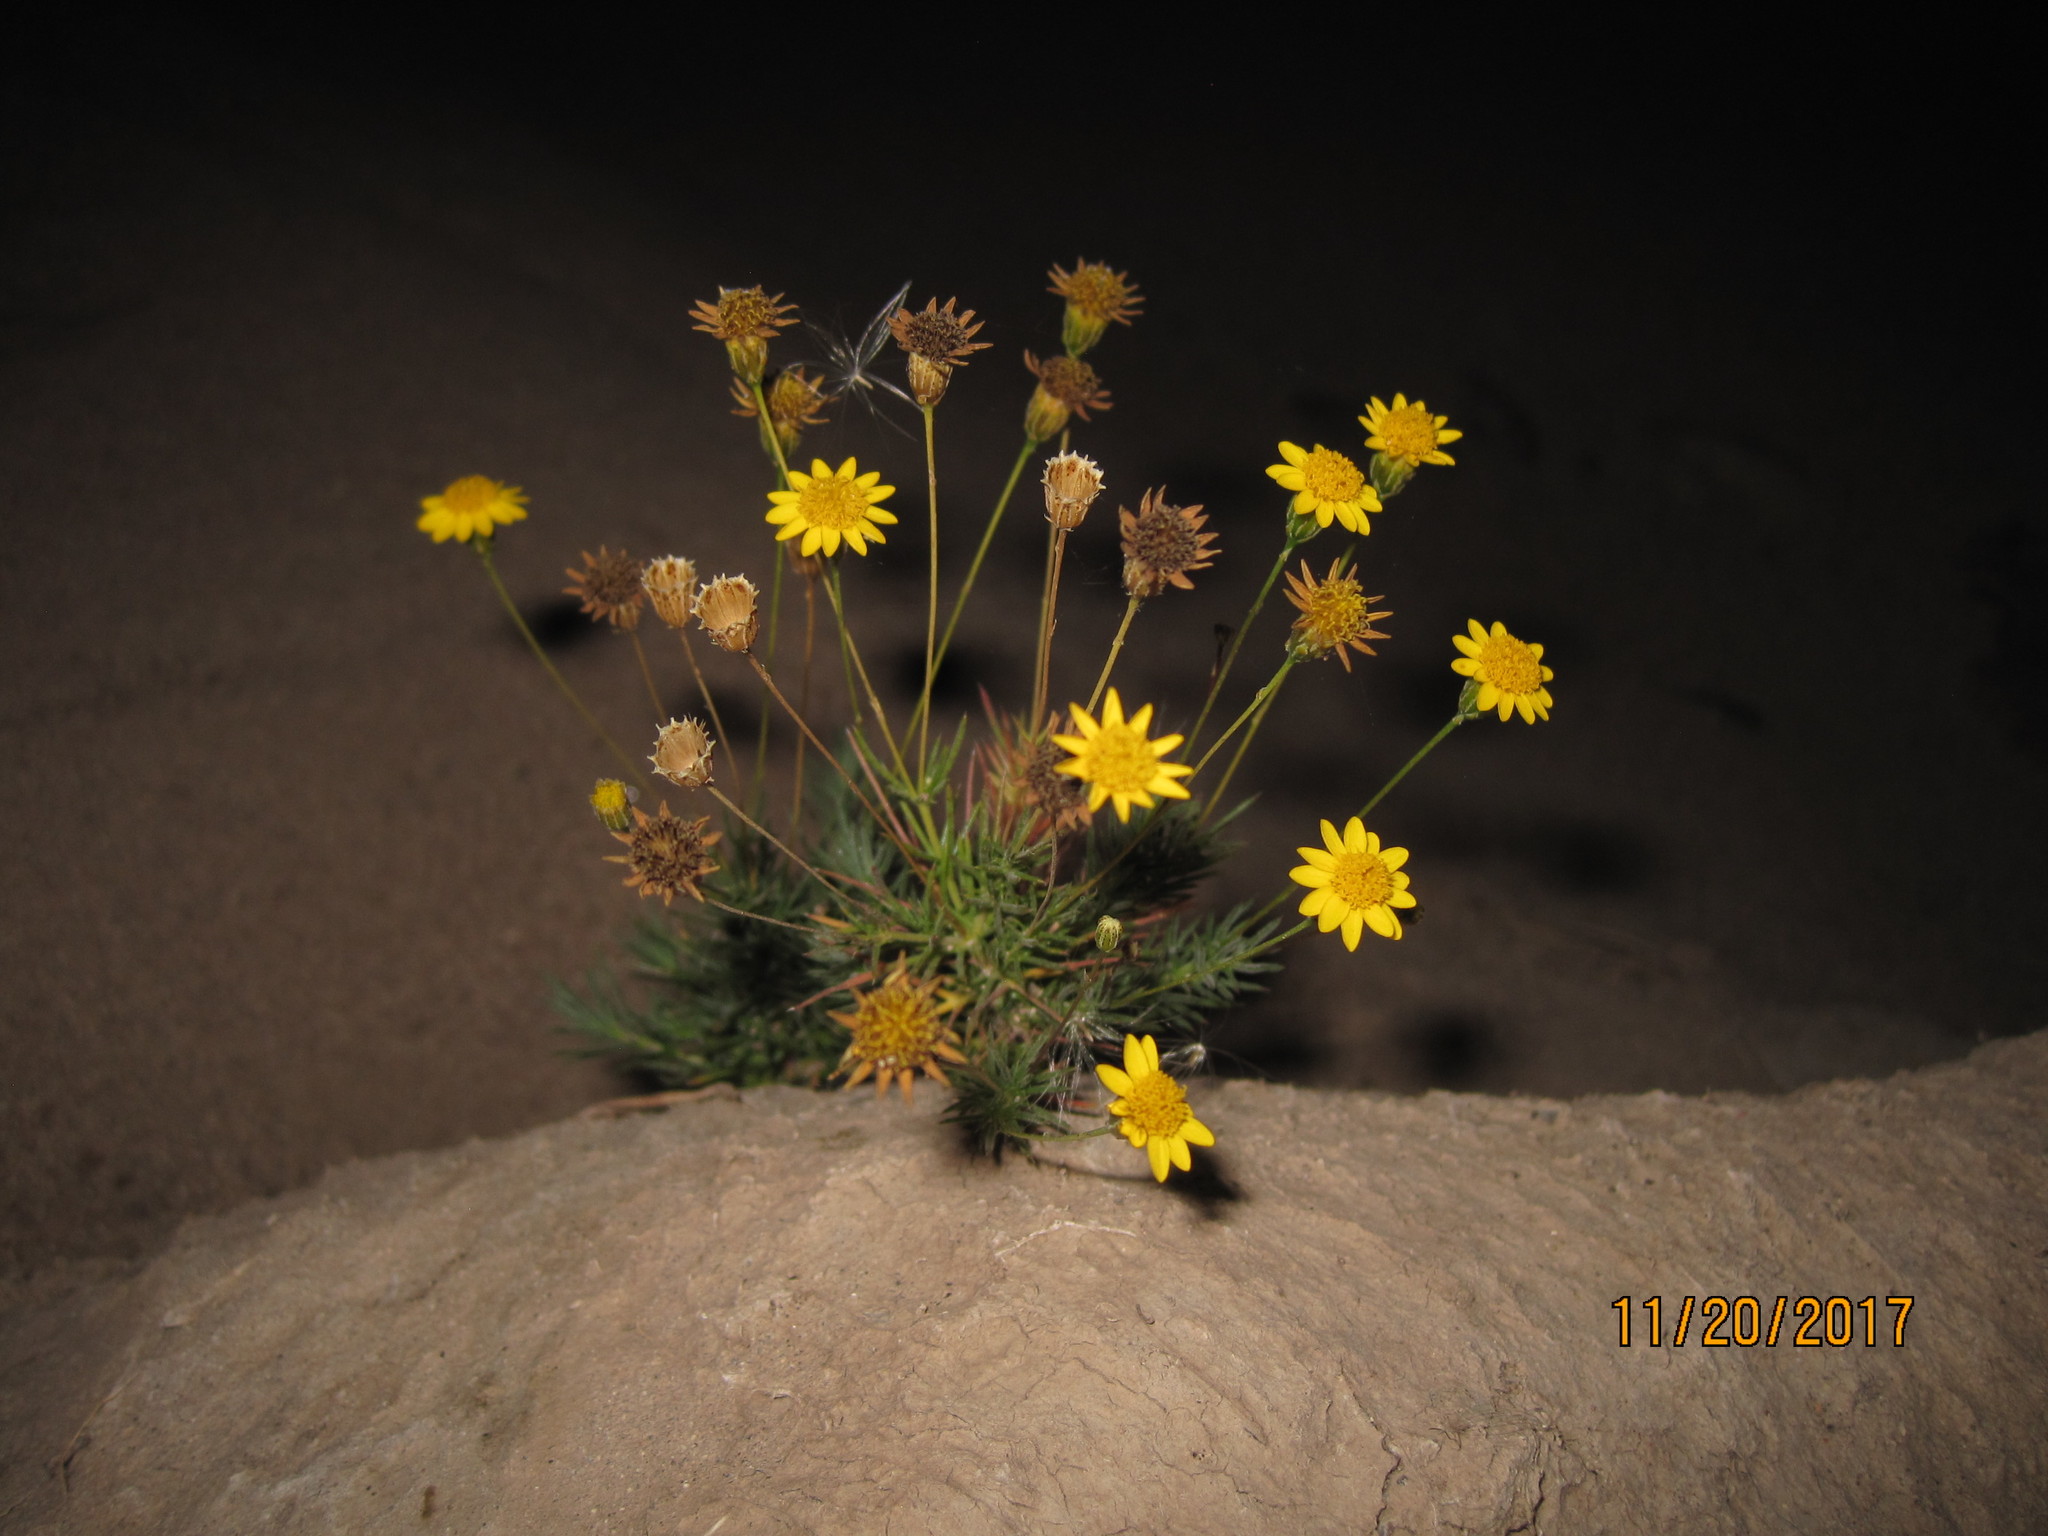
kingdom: Plantae
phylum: Tracheophyta
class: Magnoliopsida
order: Asterales
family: Asteraceae
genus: Thymophylla
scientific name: Thymophylla pentachaeta
